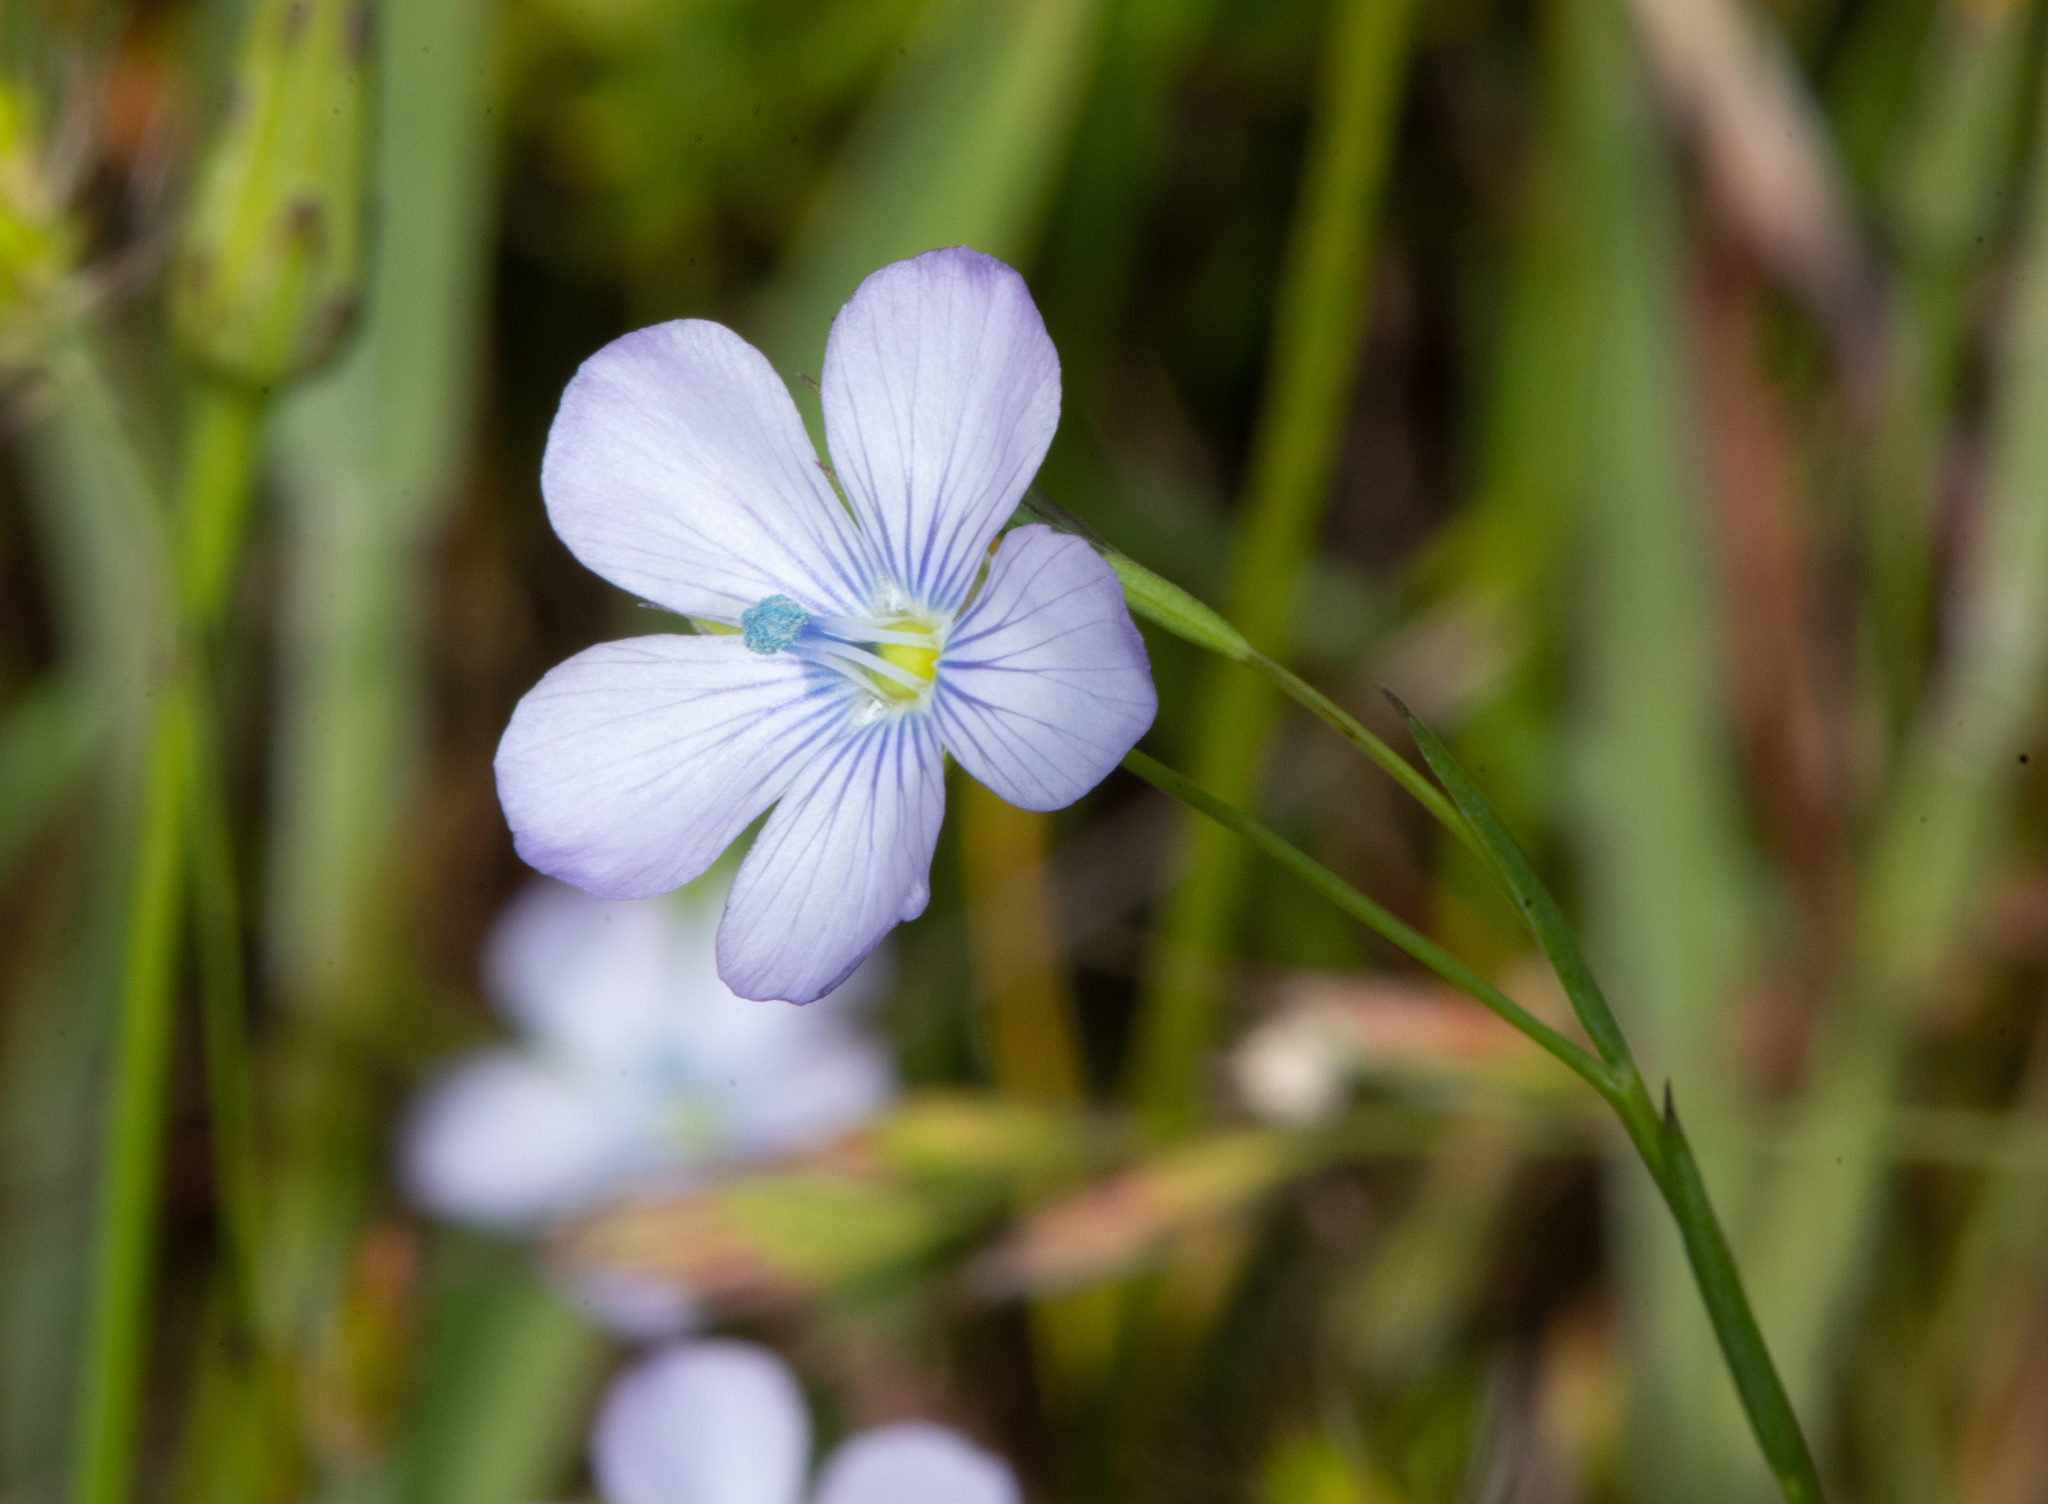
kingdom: Plantae
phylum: Tracheophyta
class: Magnoliopsida
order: Malpighiales
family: Linaceae
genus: Linum
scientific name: Linum bienne
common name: Pale flax
